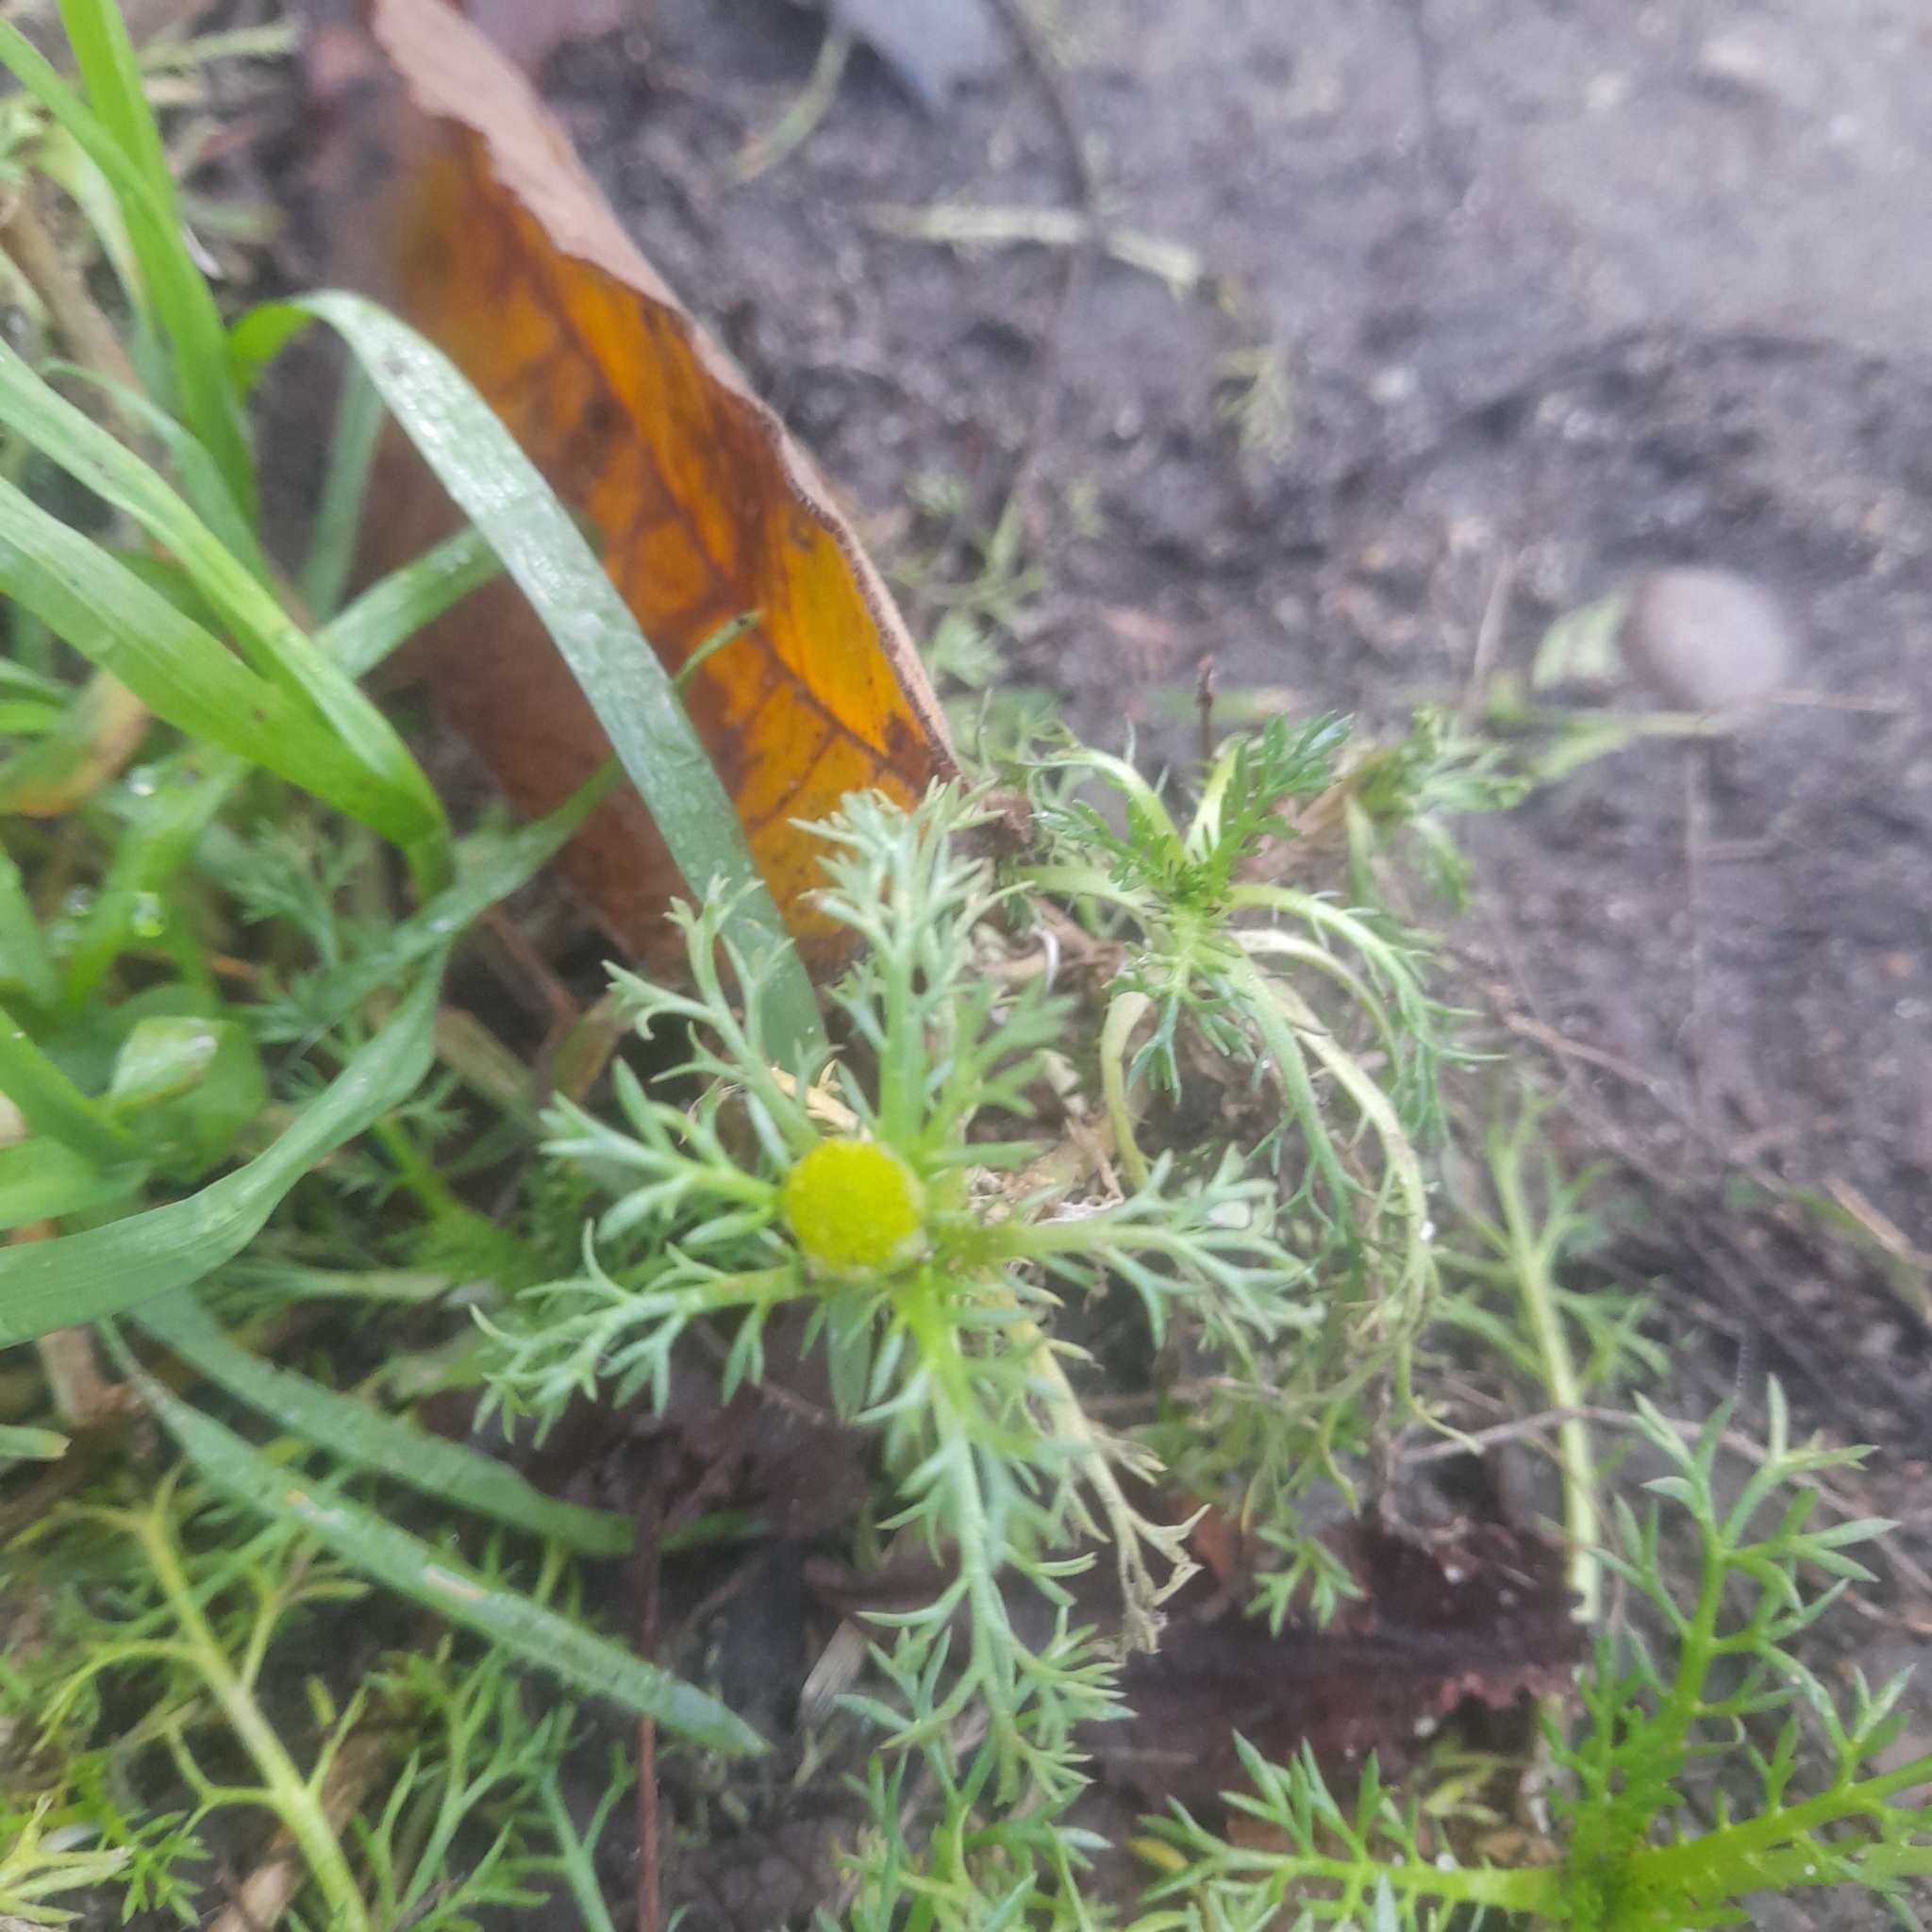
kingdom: Plantae
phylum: Tracheophyta
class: Magnoliopsida
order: Asterales
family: Asteraceae
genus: Matricaria
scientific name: Matricaria discoidea
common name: Disc mayweed
